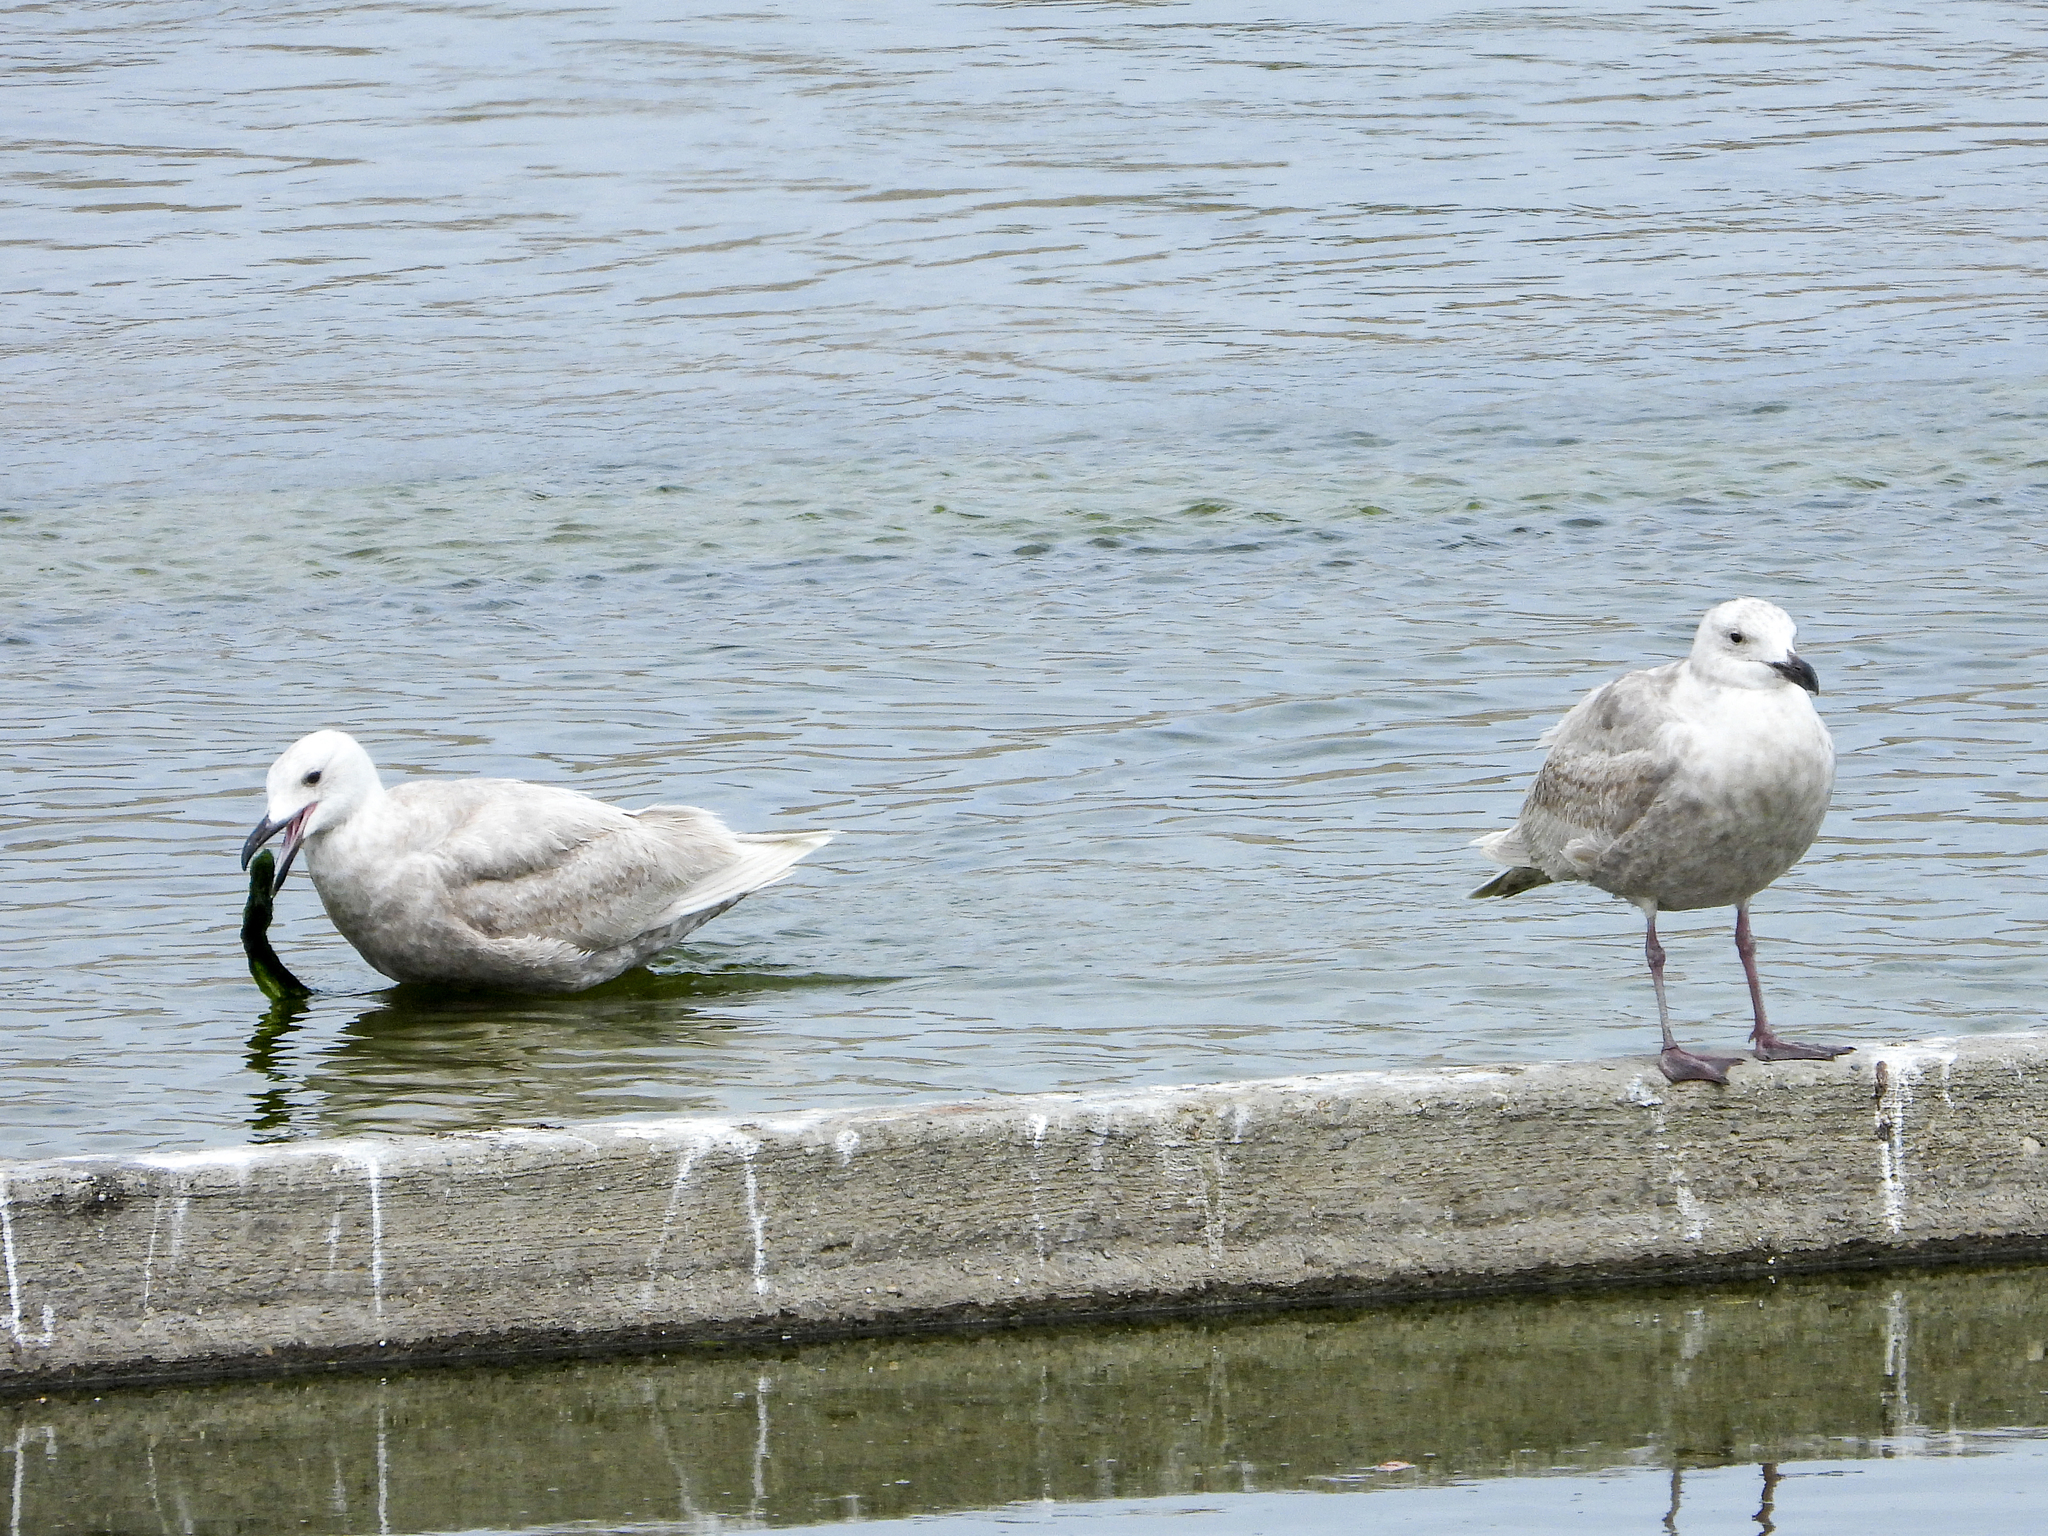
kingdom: Animalia
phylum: Chordata
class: Aves
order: Charadriiformes
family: Laridae
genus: Larus
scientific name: Larus glaucescens
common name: Glaucous-winged gull
